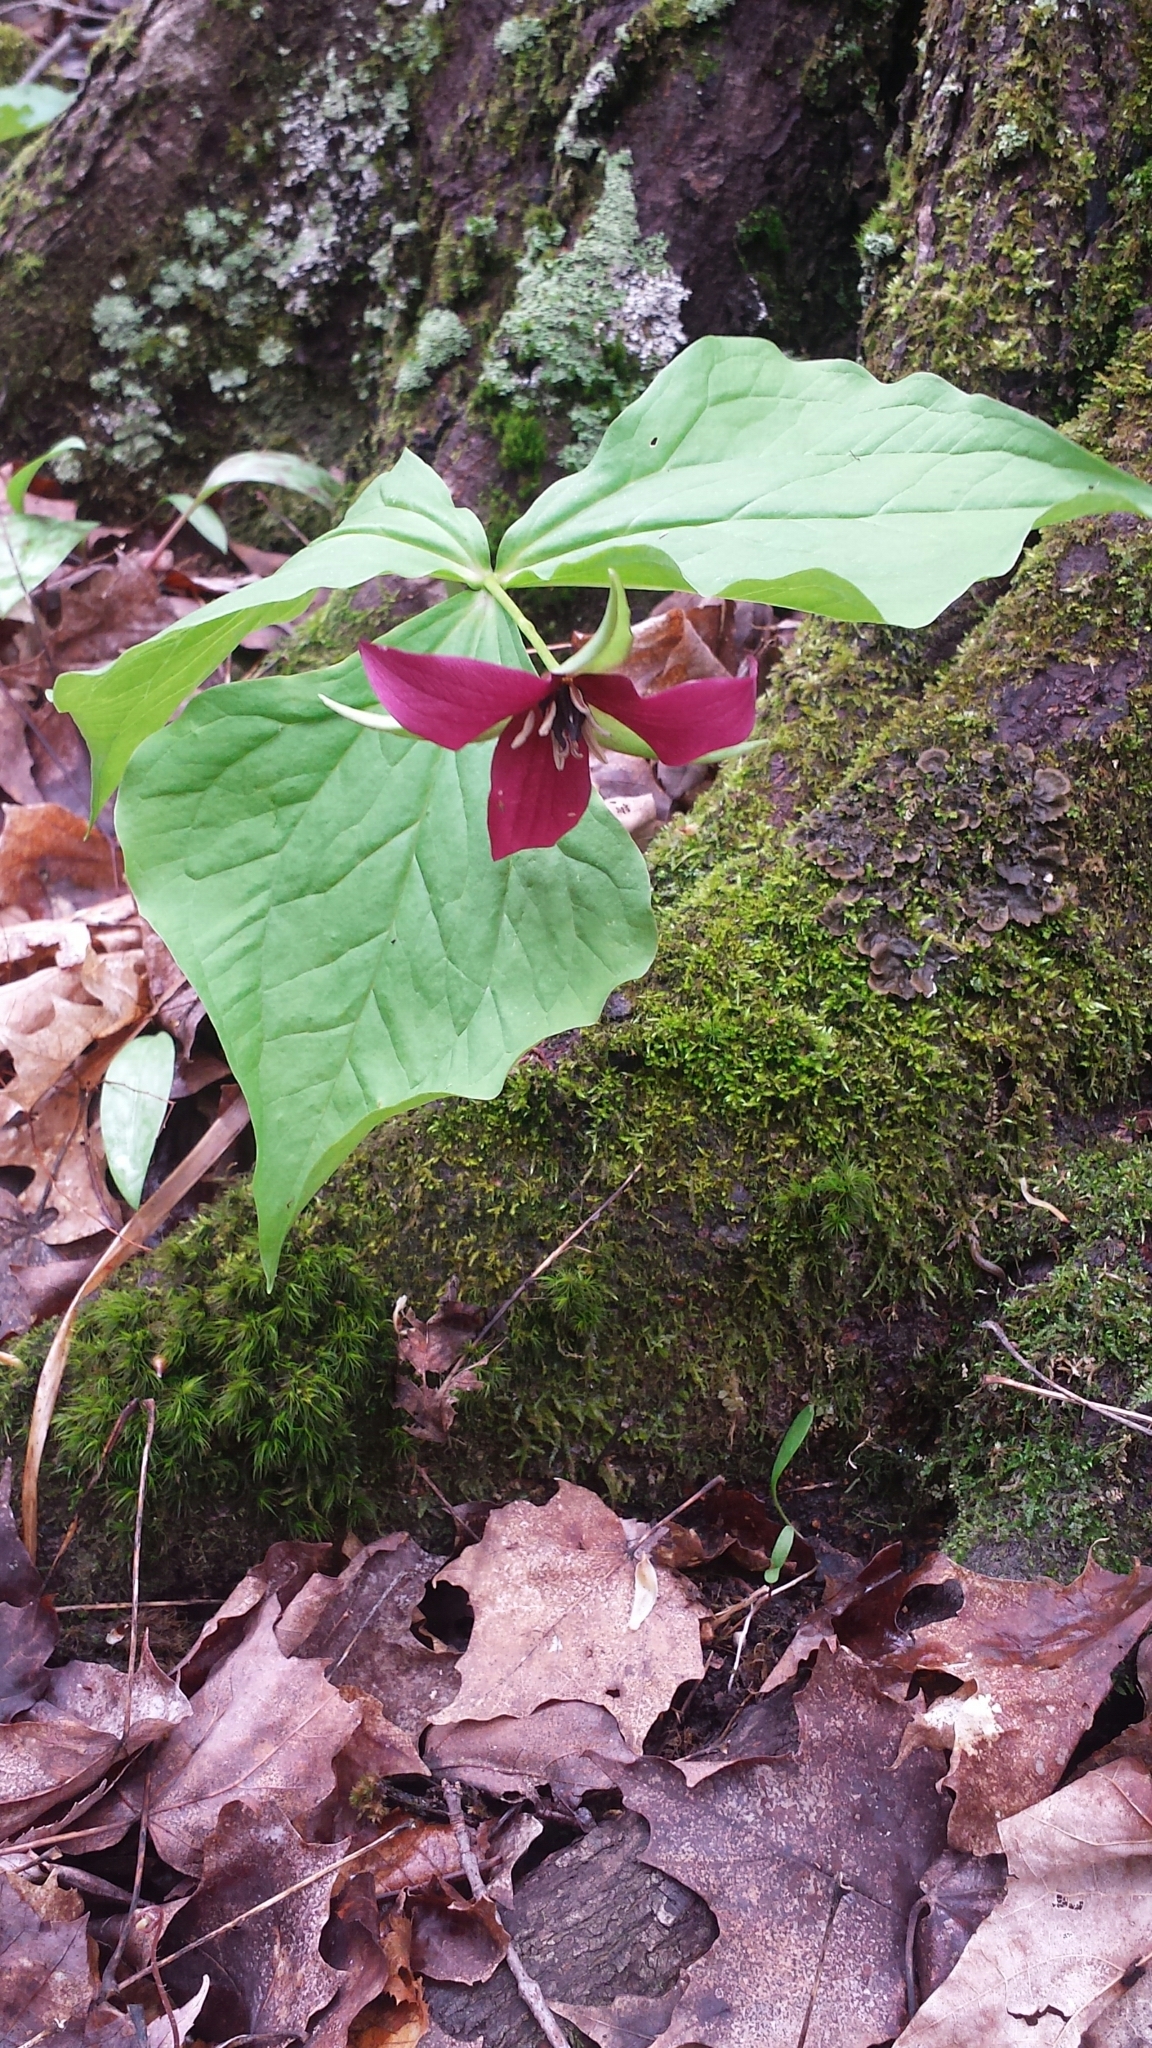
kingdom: Plantae
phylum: Tracheophyta
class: Liliopsida
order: Liliales
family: Melanthiaceae
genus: Trillium
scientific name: Trillium erectum
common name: Purple trillium
